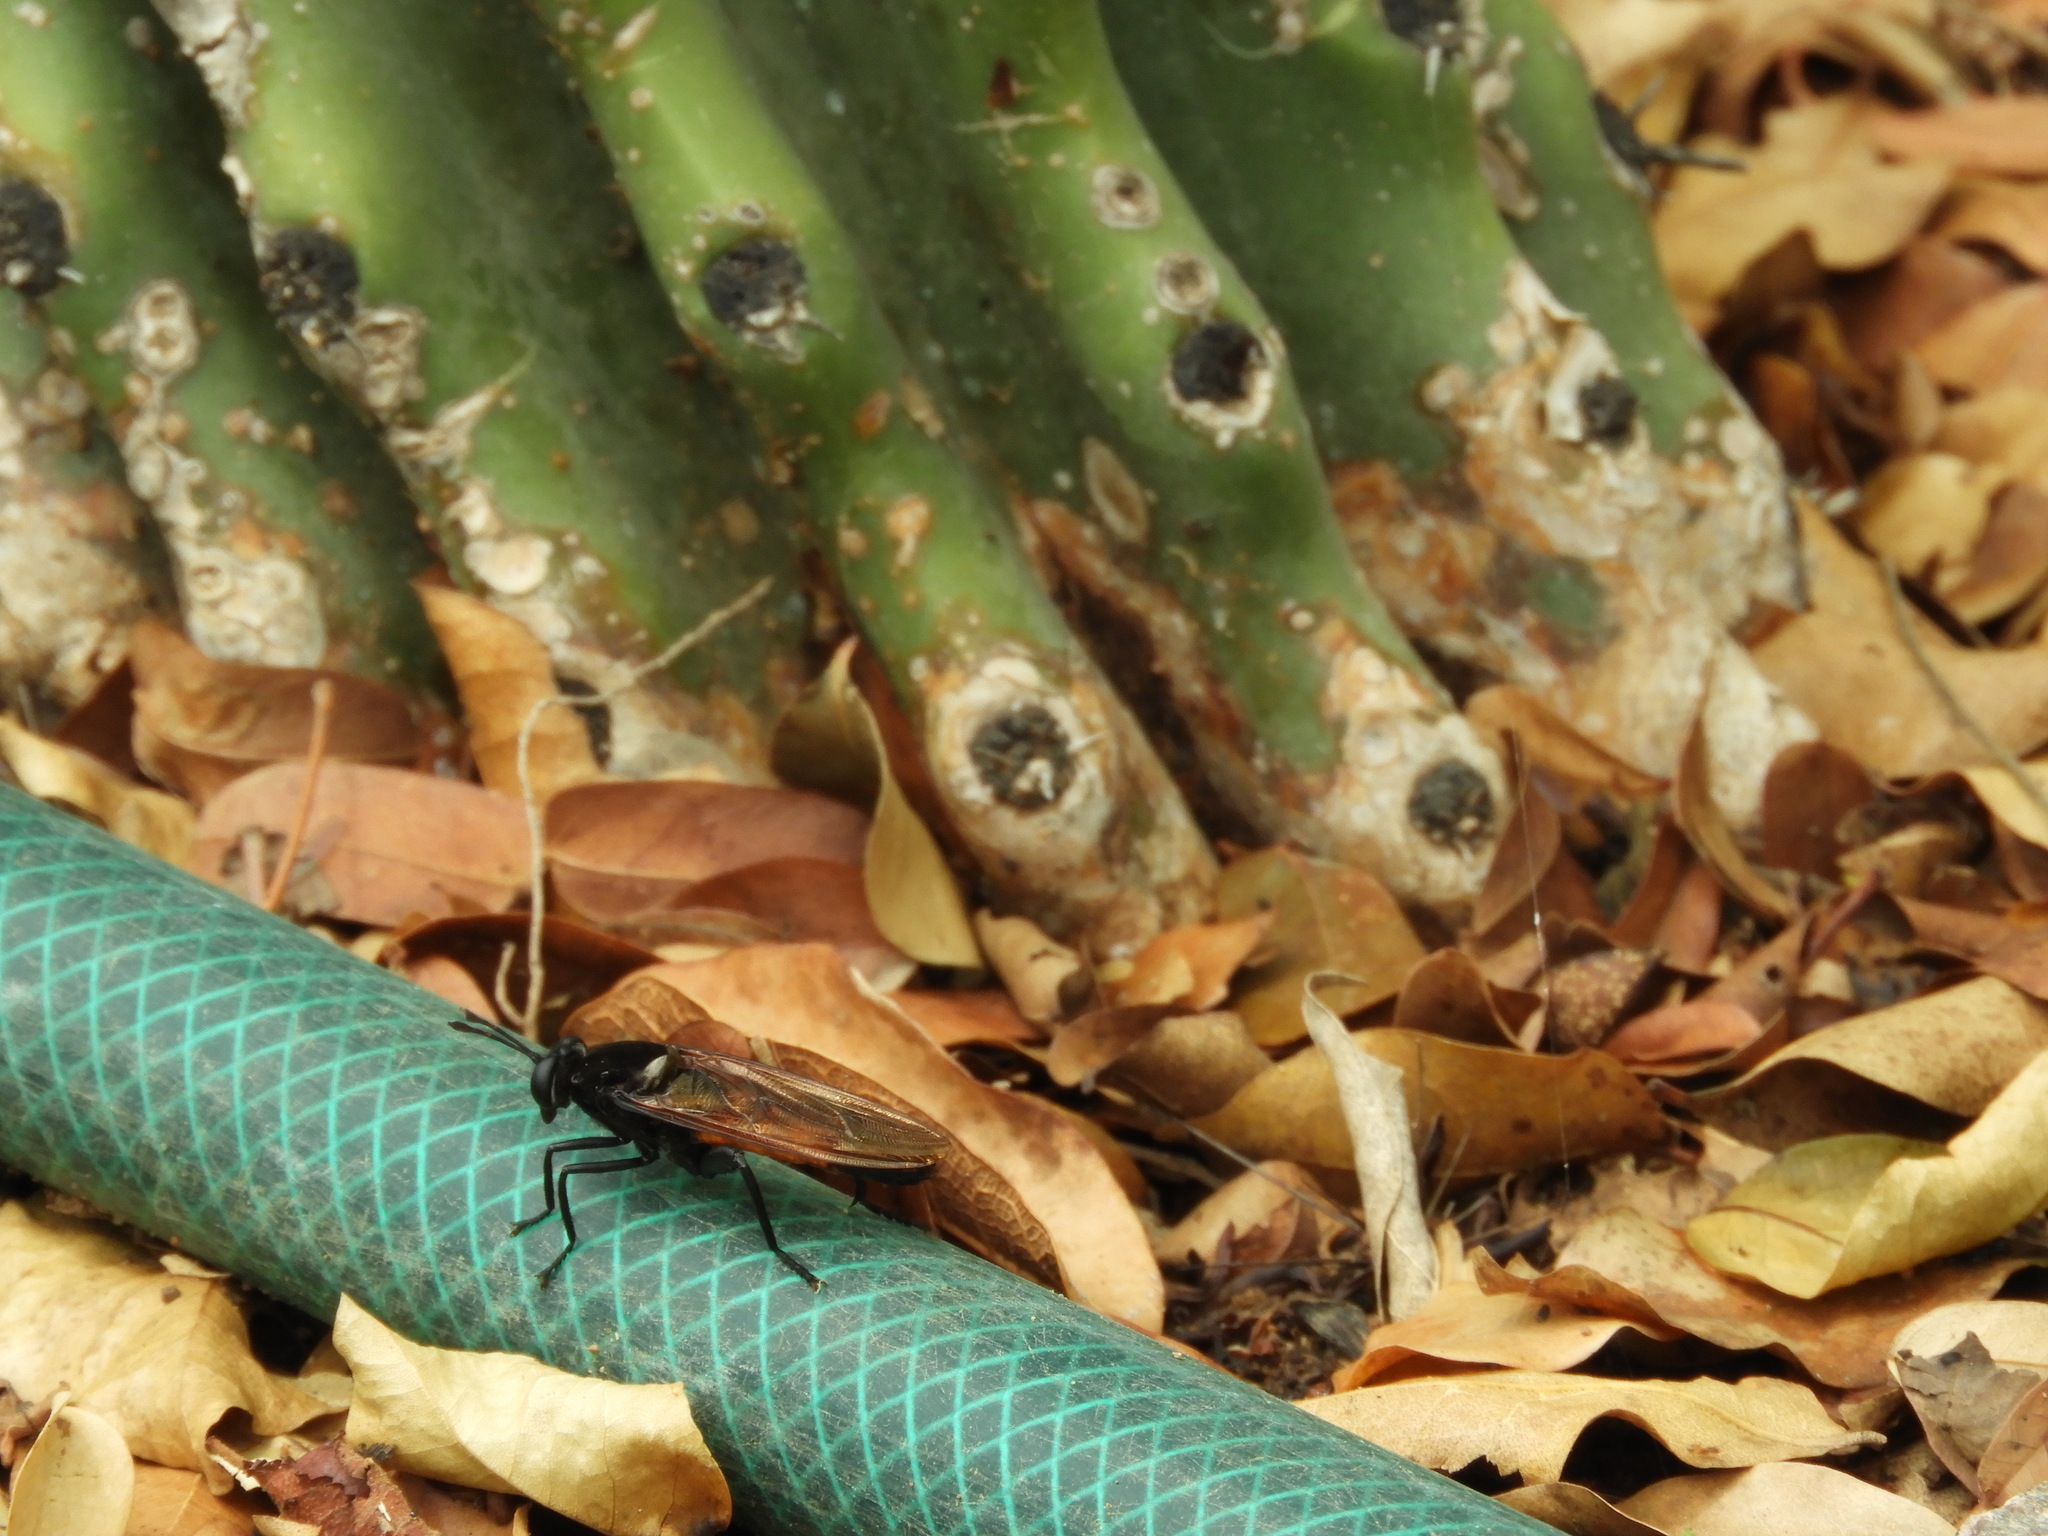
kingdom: Animalia
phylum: Arthropoda
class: Insecta
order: Diptera
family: Mydidae
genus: Mydas
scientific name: Mydas ventralis
